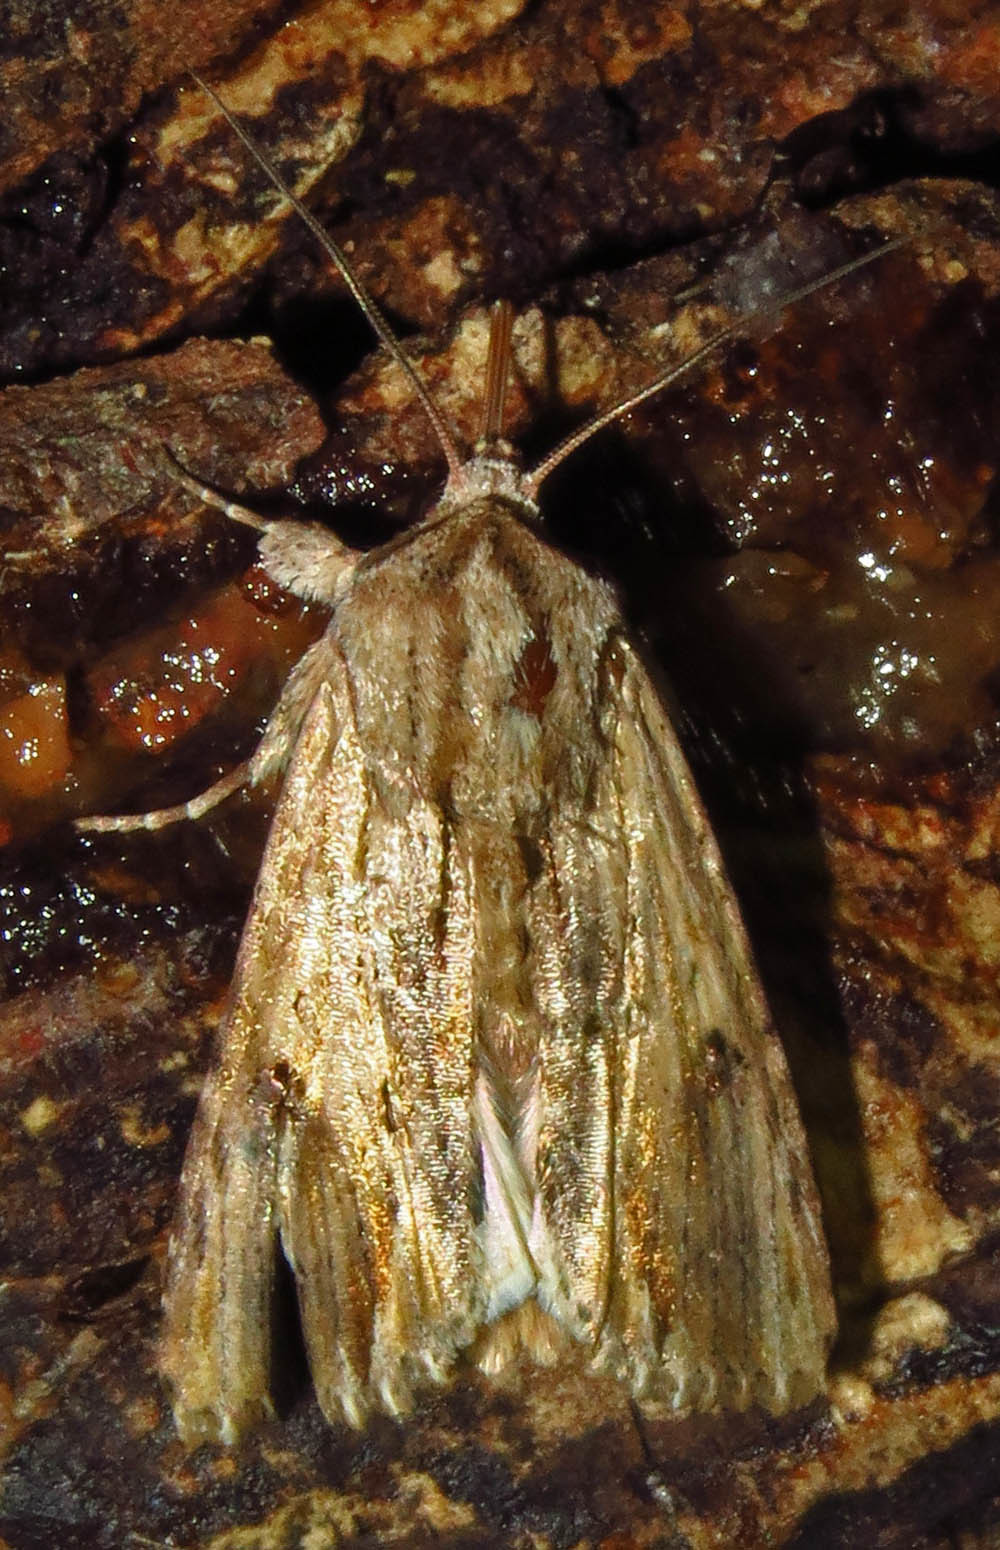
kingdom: Animalia
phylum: Arthropoda
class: Insecta
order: Lepidoptera
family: Noctuidae
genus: Spodoptera
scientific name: Spodoptera eridania
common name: Southern army worm
